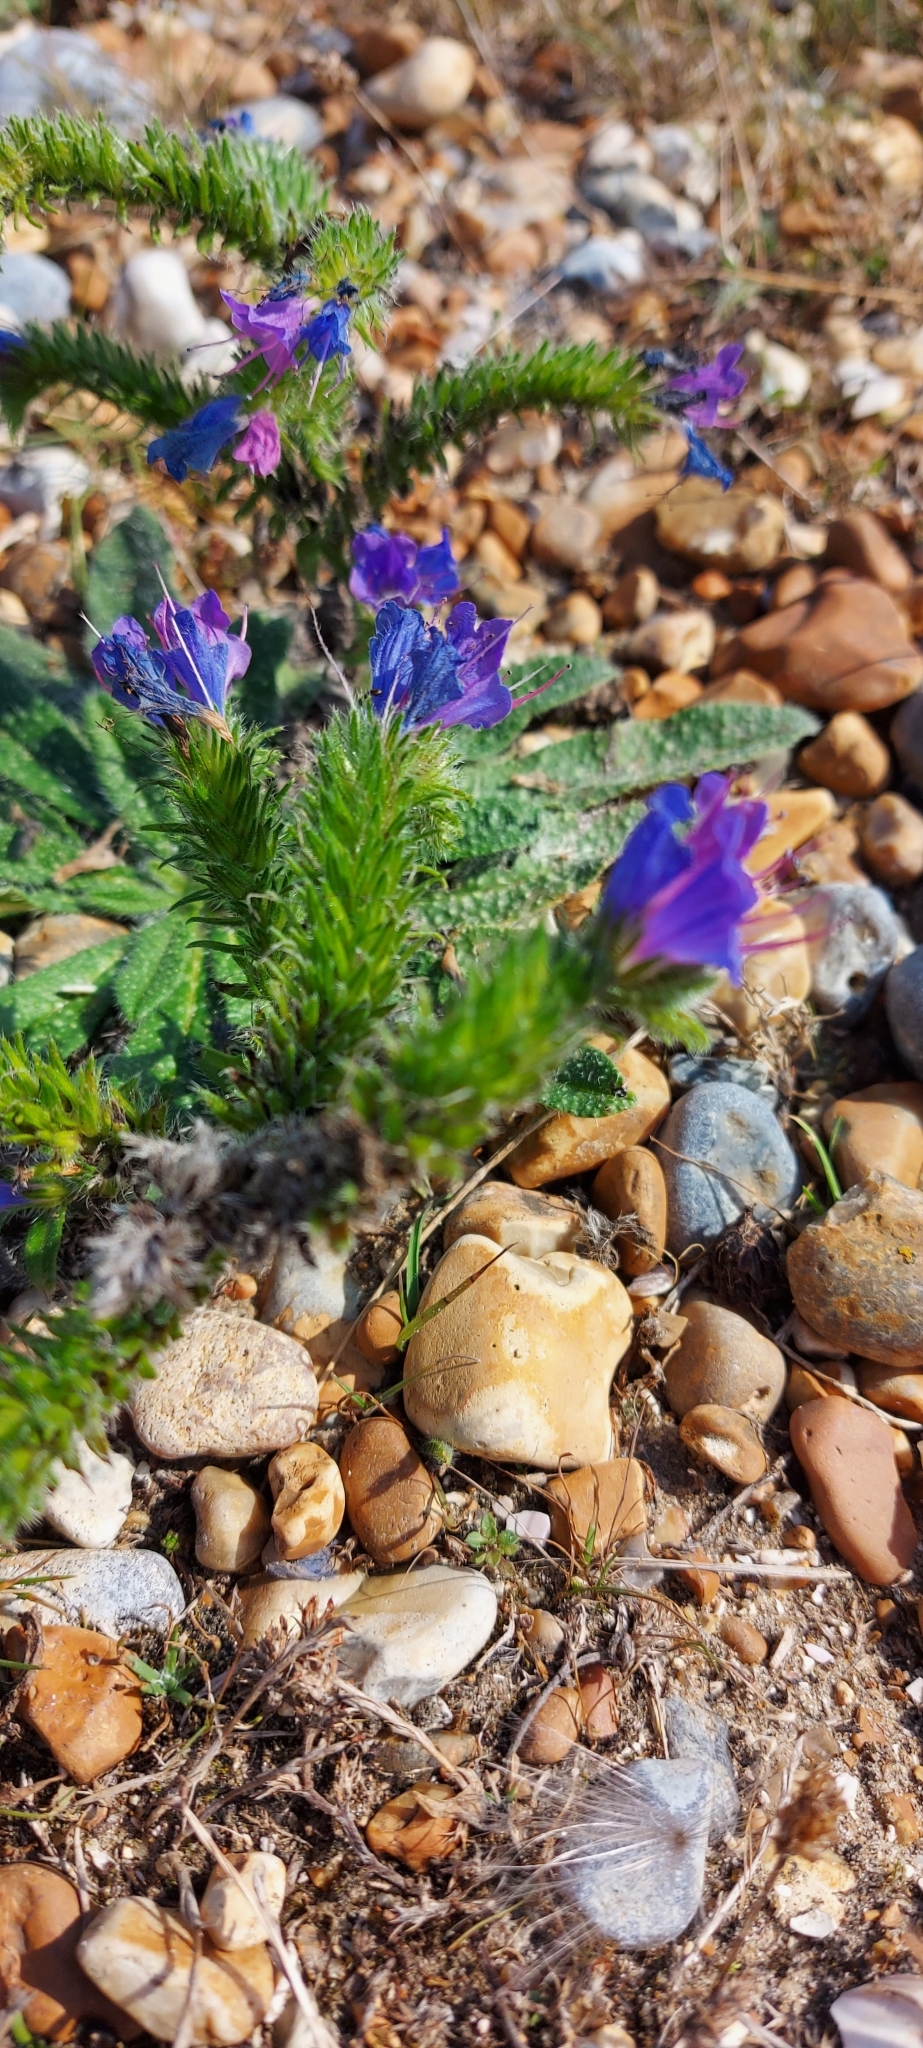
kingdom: Plantae
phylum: Tracheophyta
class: Magnoliopsida
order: Boraginales
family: Boraginaceae
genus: Echium
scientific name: Echium vulgare
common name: Common viper's bugloss
